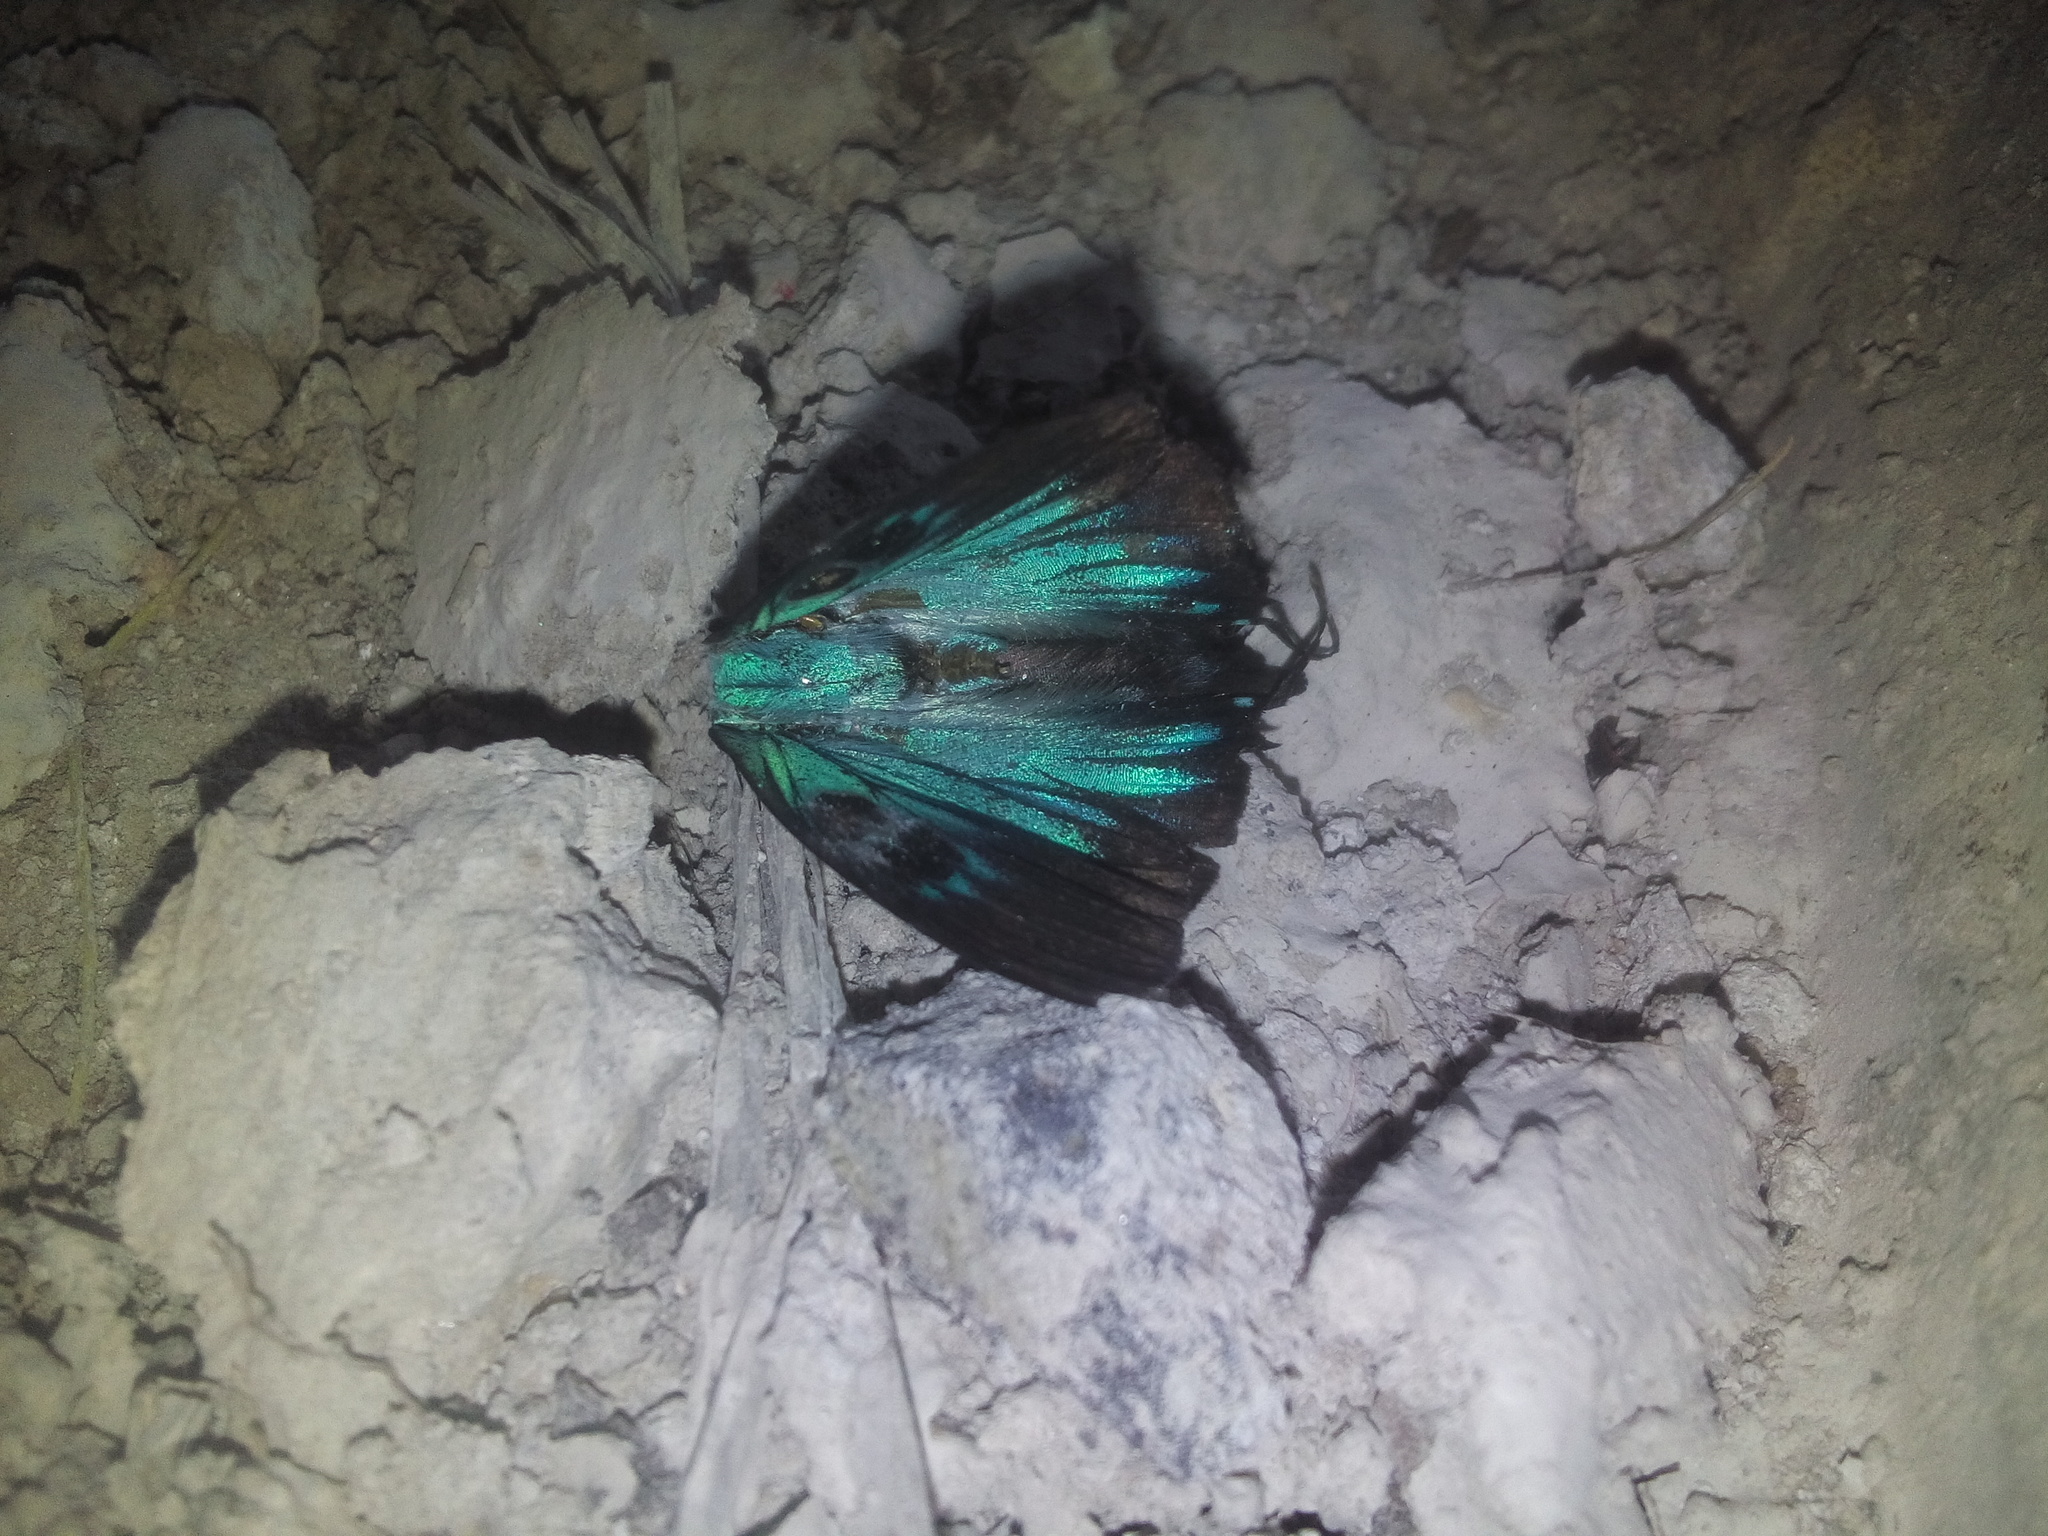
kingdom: Animalia
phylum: Arthropoda
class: Insecta
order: Lepidoptera
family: Lycaenidae
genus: Thecla
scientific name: Thecla polybe
